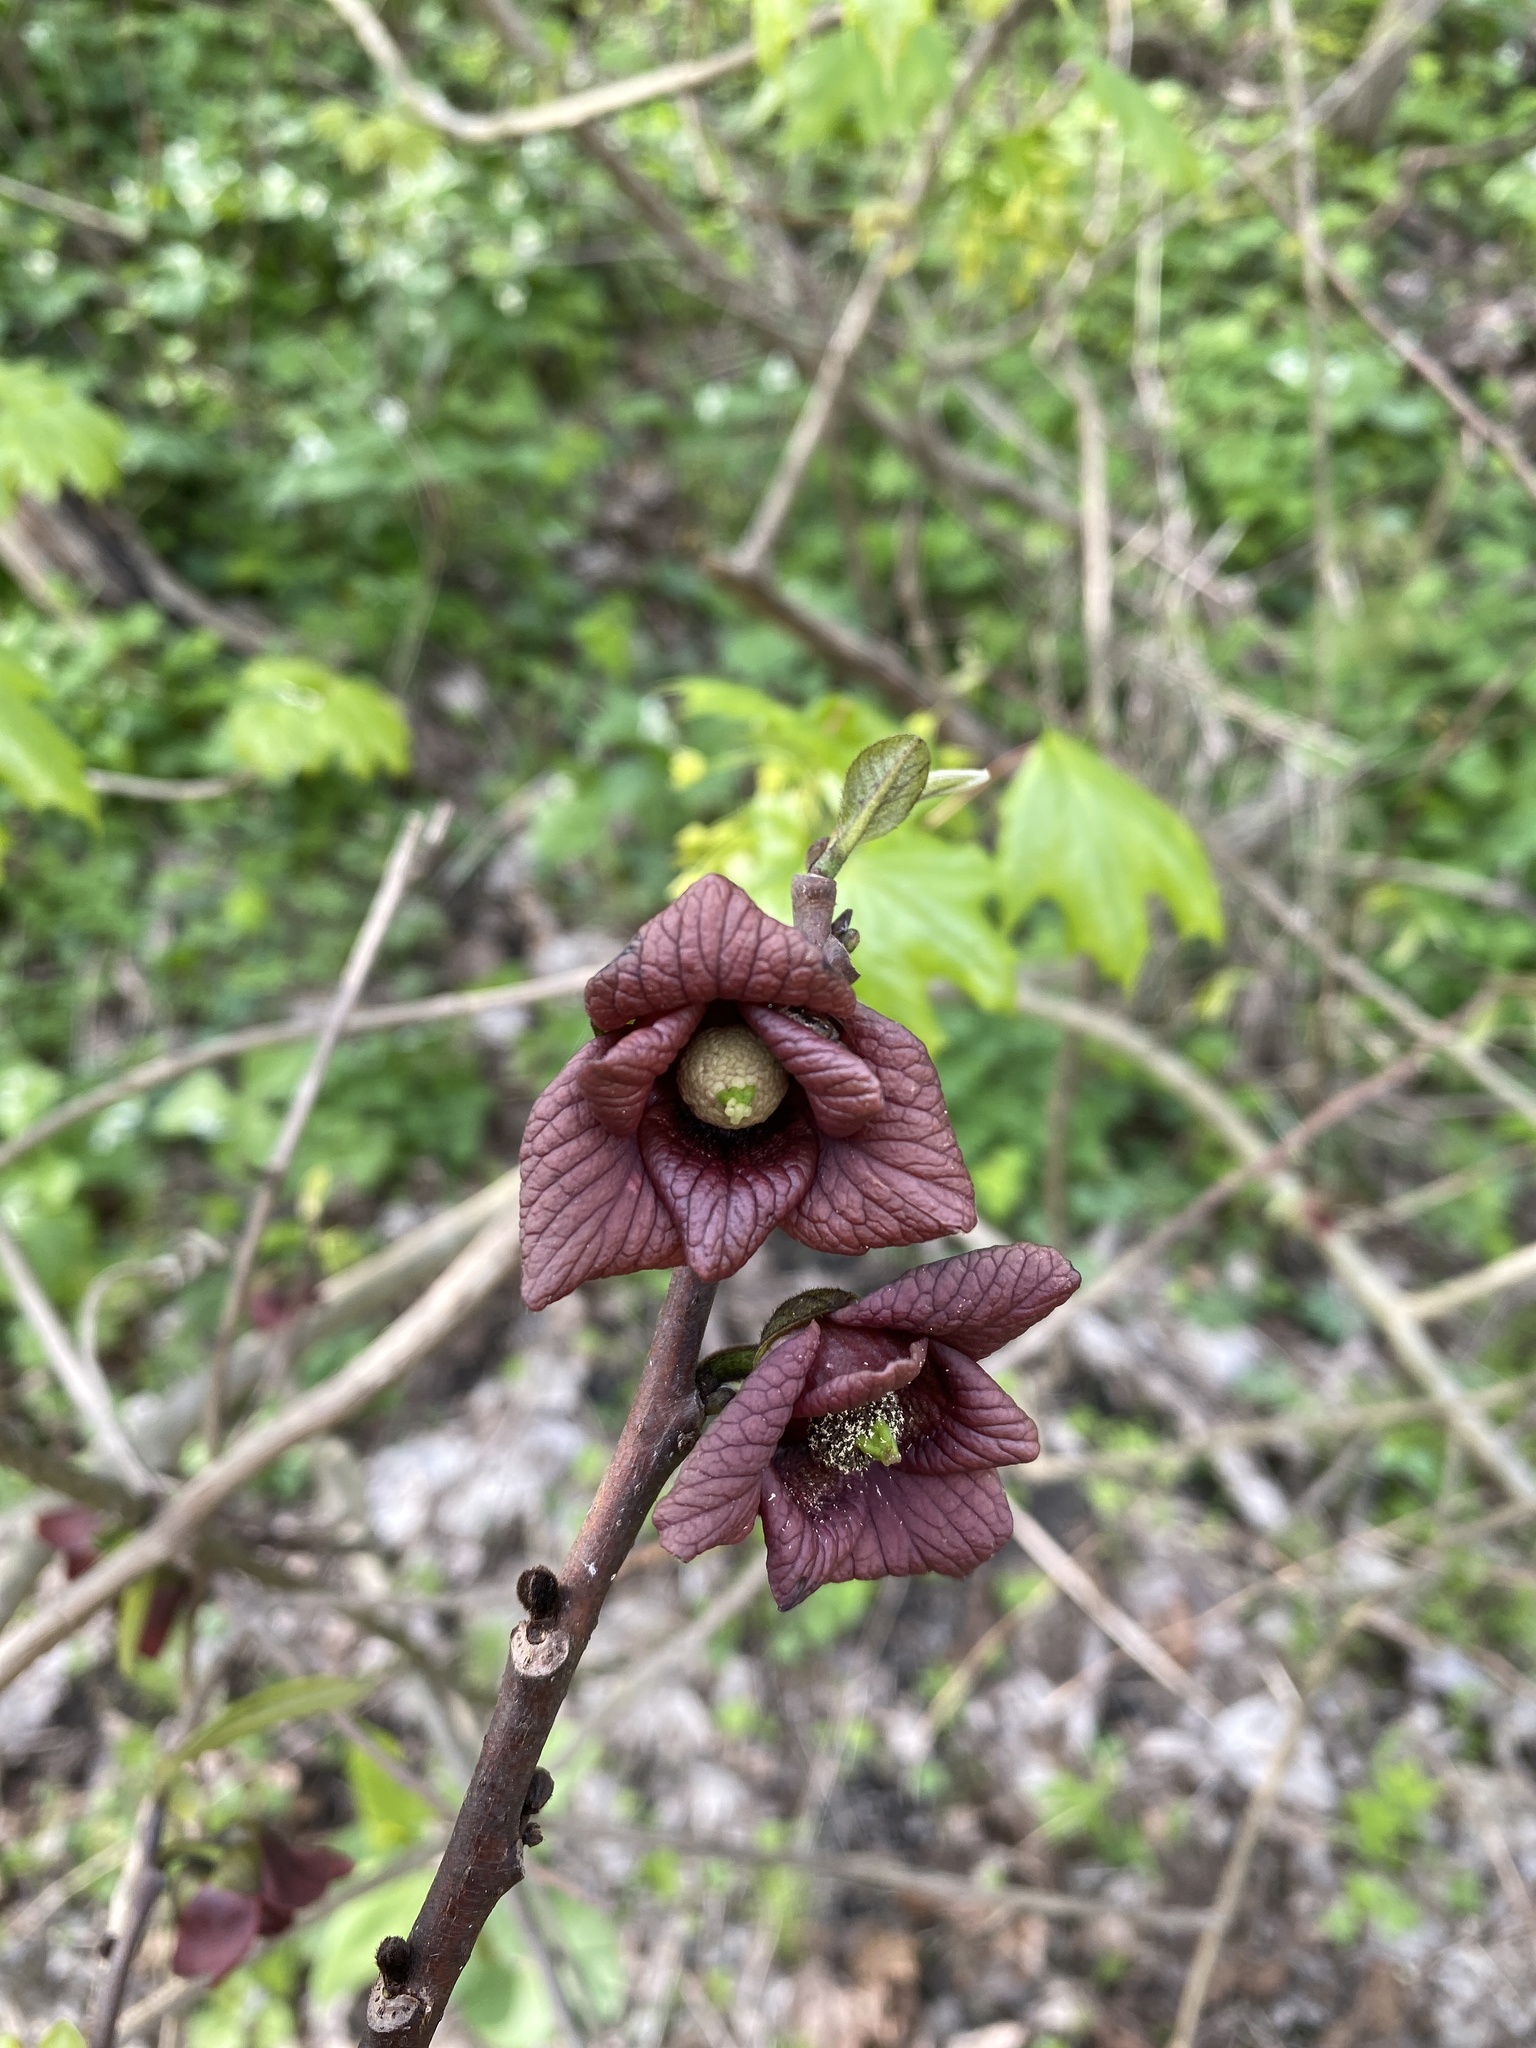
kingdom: Plantae
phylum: Tracheophyta
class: Magnoliopsida
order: Magnoliales
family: Annonaceae
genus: Asimina
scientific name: Asimina triloba
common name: Dog-banana
